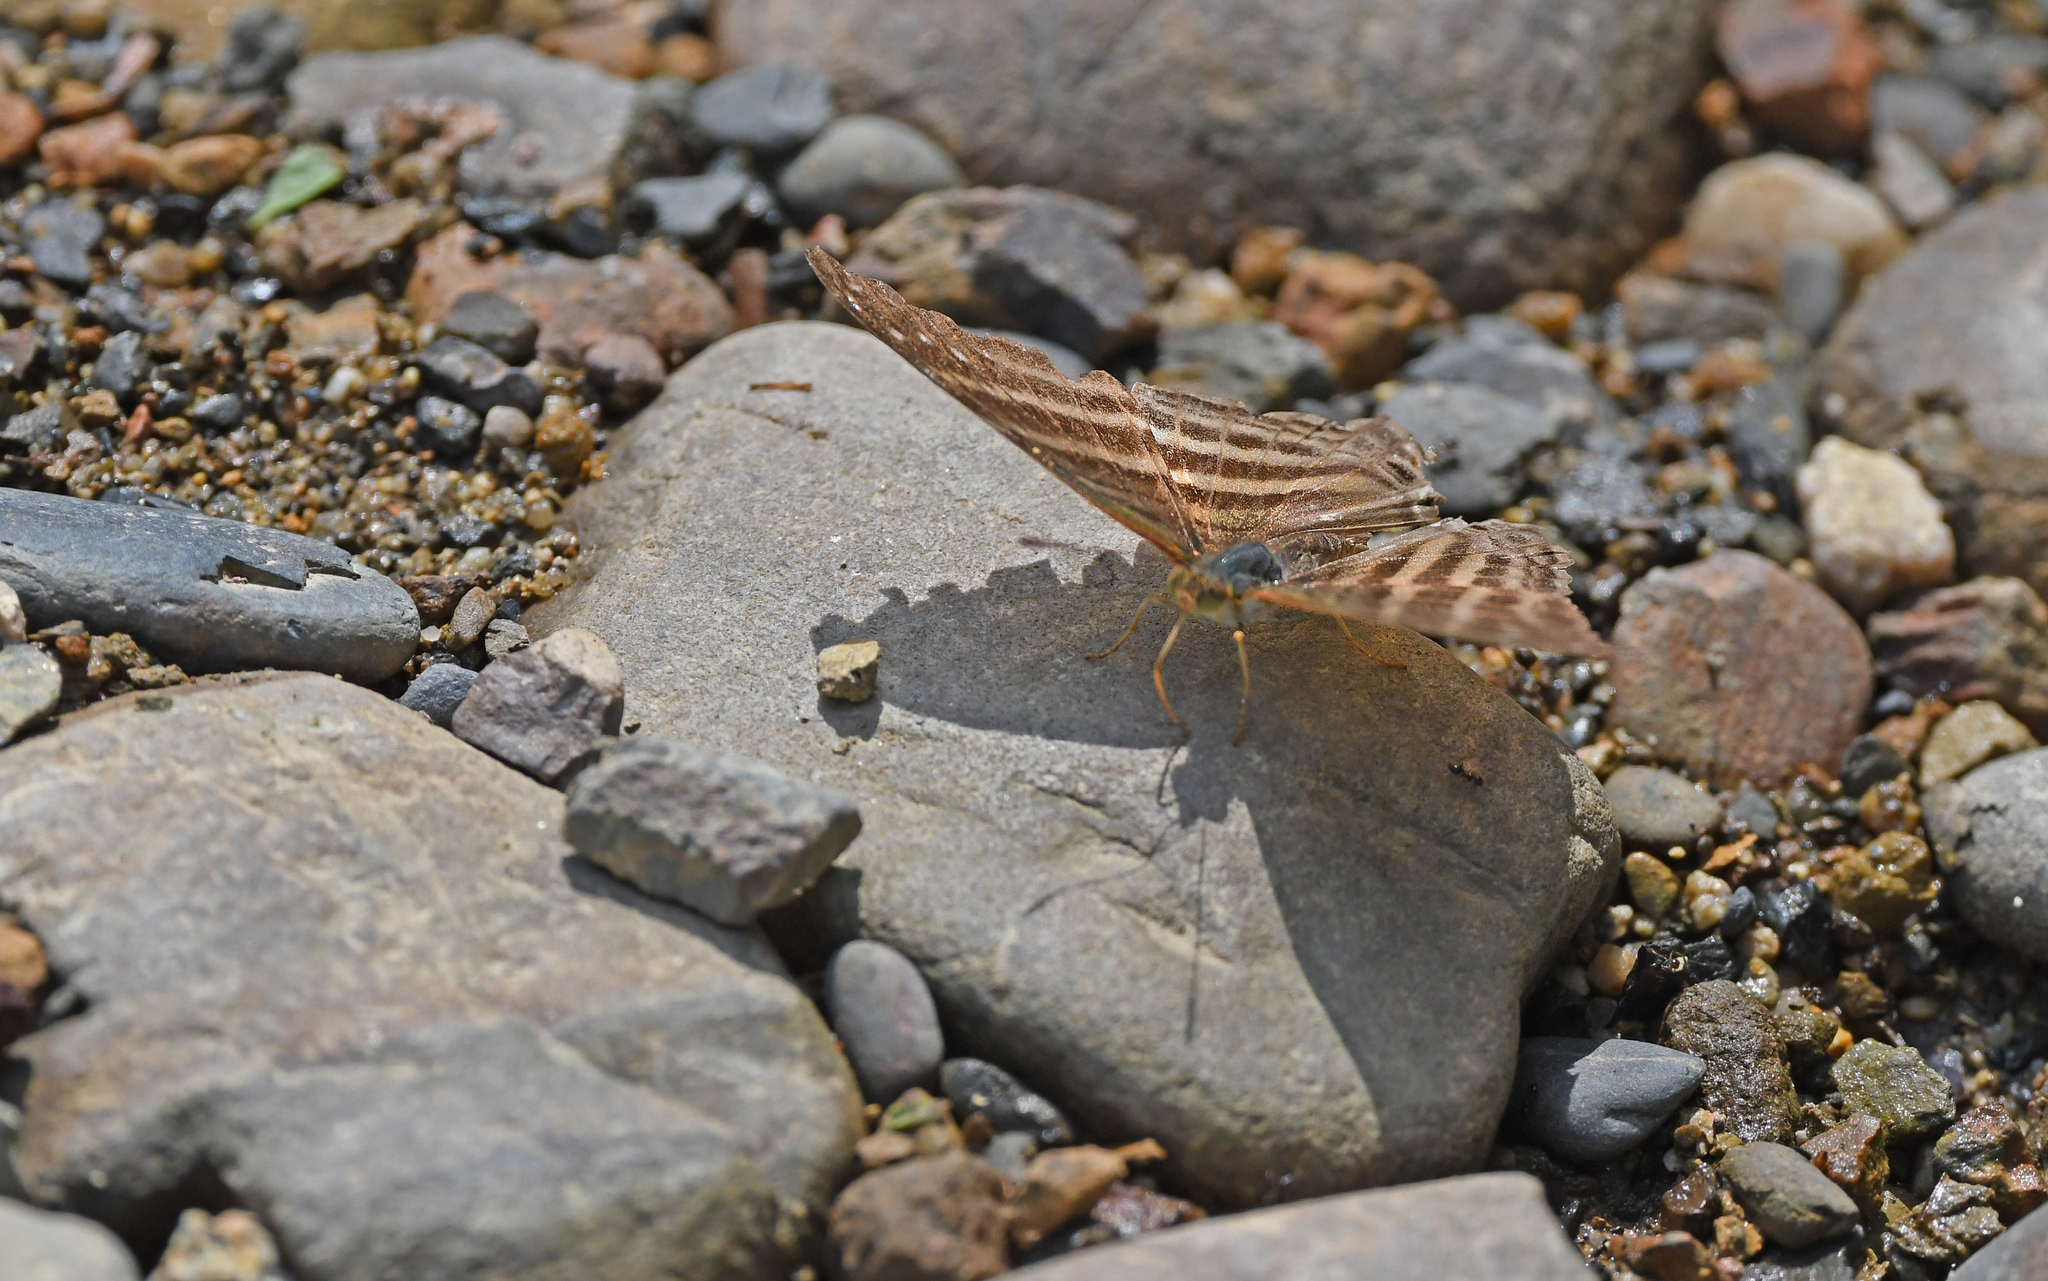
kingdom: Animalia
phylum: Arthropoda
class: Insecta
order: Lepidoptera
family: Nymphalidae
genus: Marpesia
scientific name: Marpesia chiron
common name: Many-banded daggerwing
